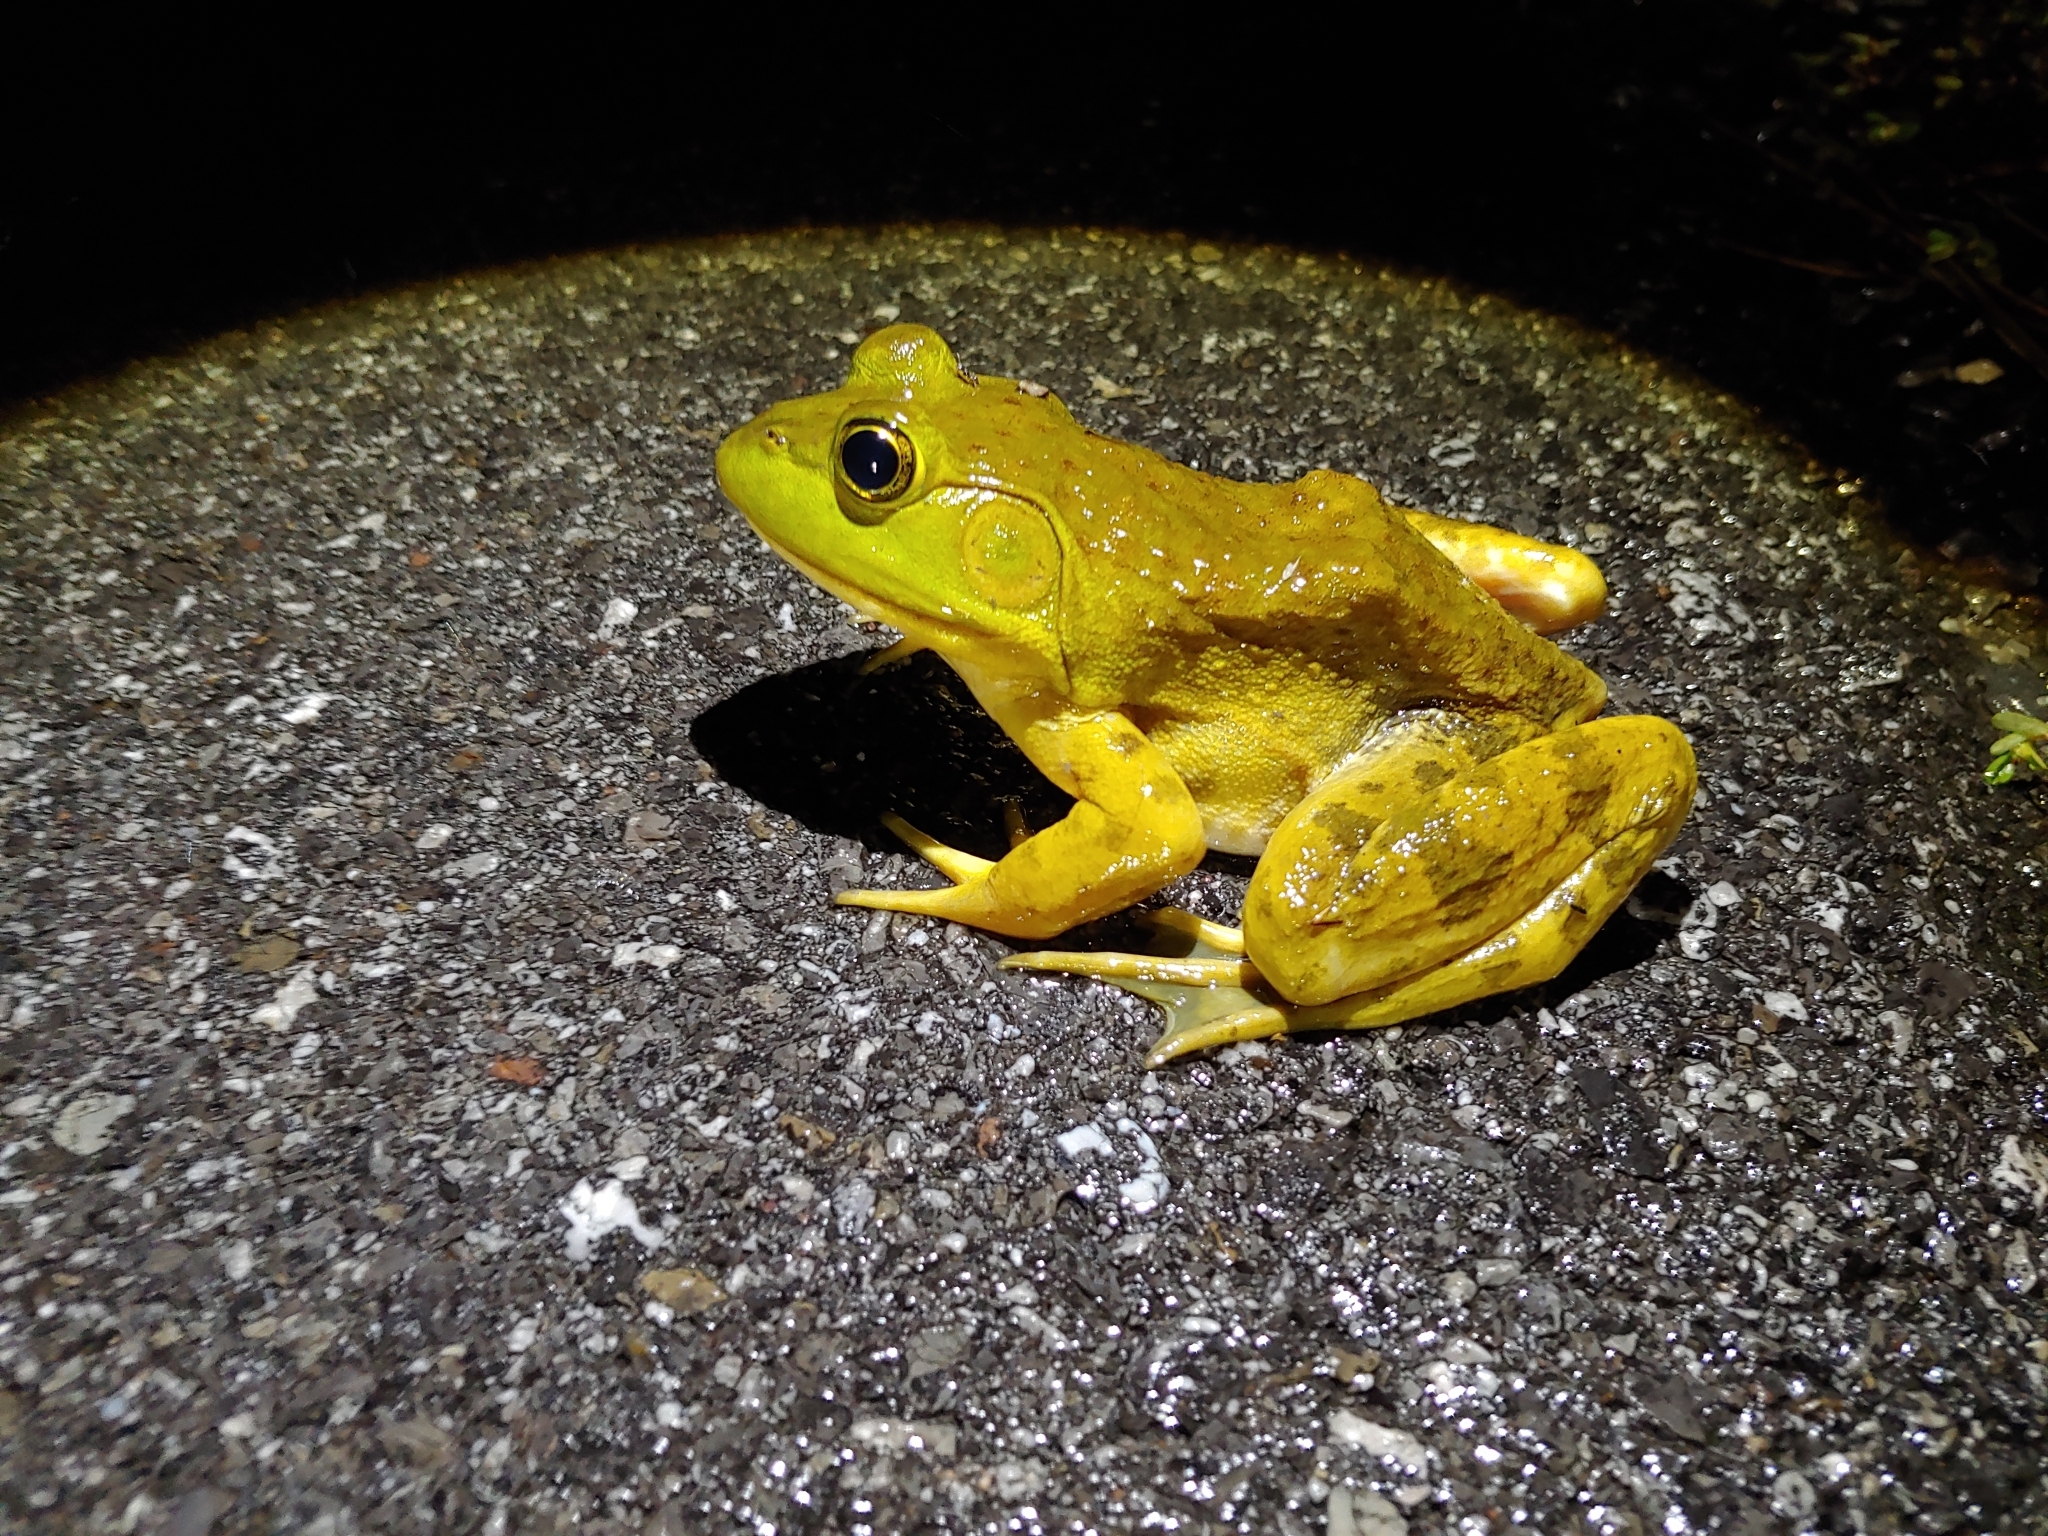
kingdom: Animalia
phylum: Chordata
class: Amphibia
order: Anura
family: Ranidae
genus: Lithobates
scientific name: Lithobates catesbeianus
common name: American bullfrog
